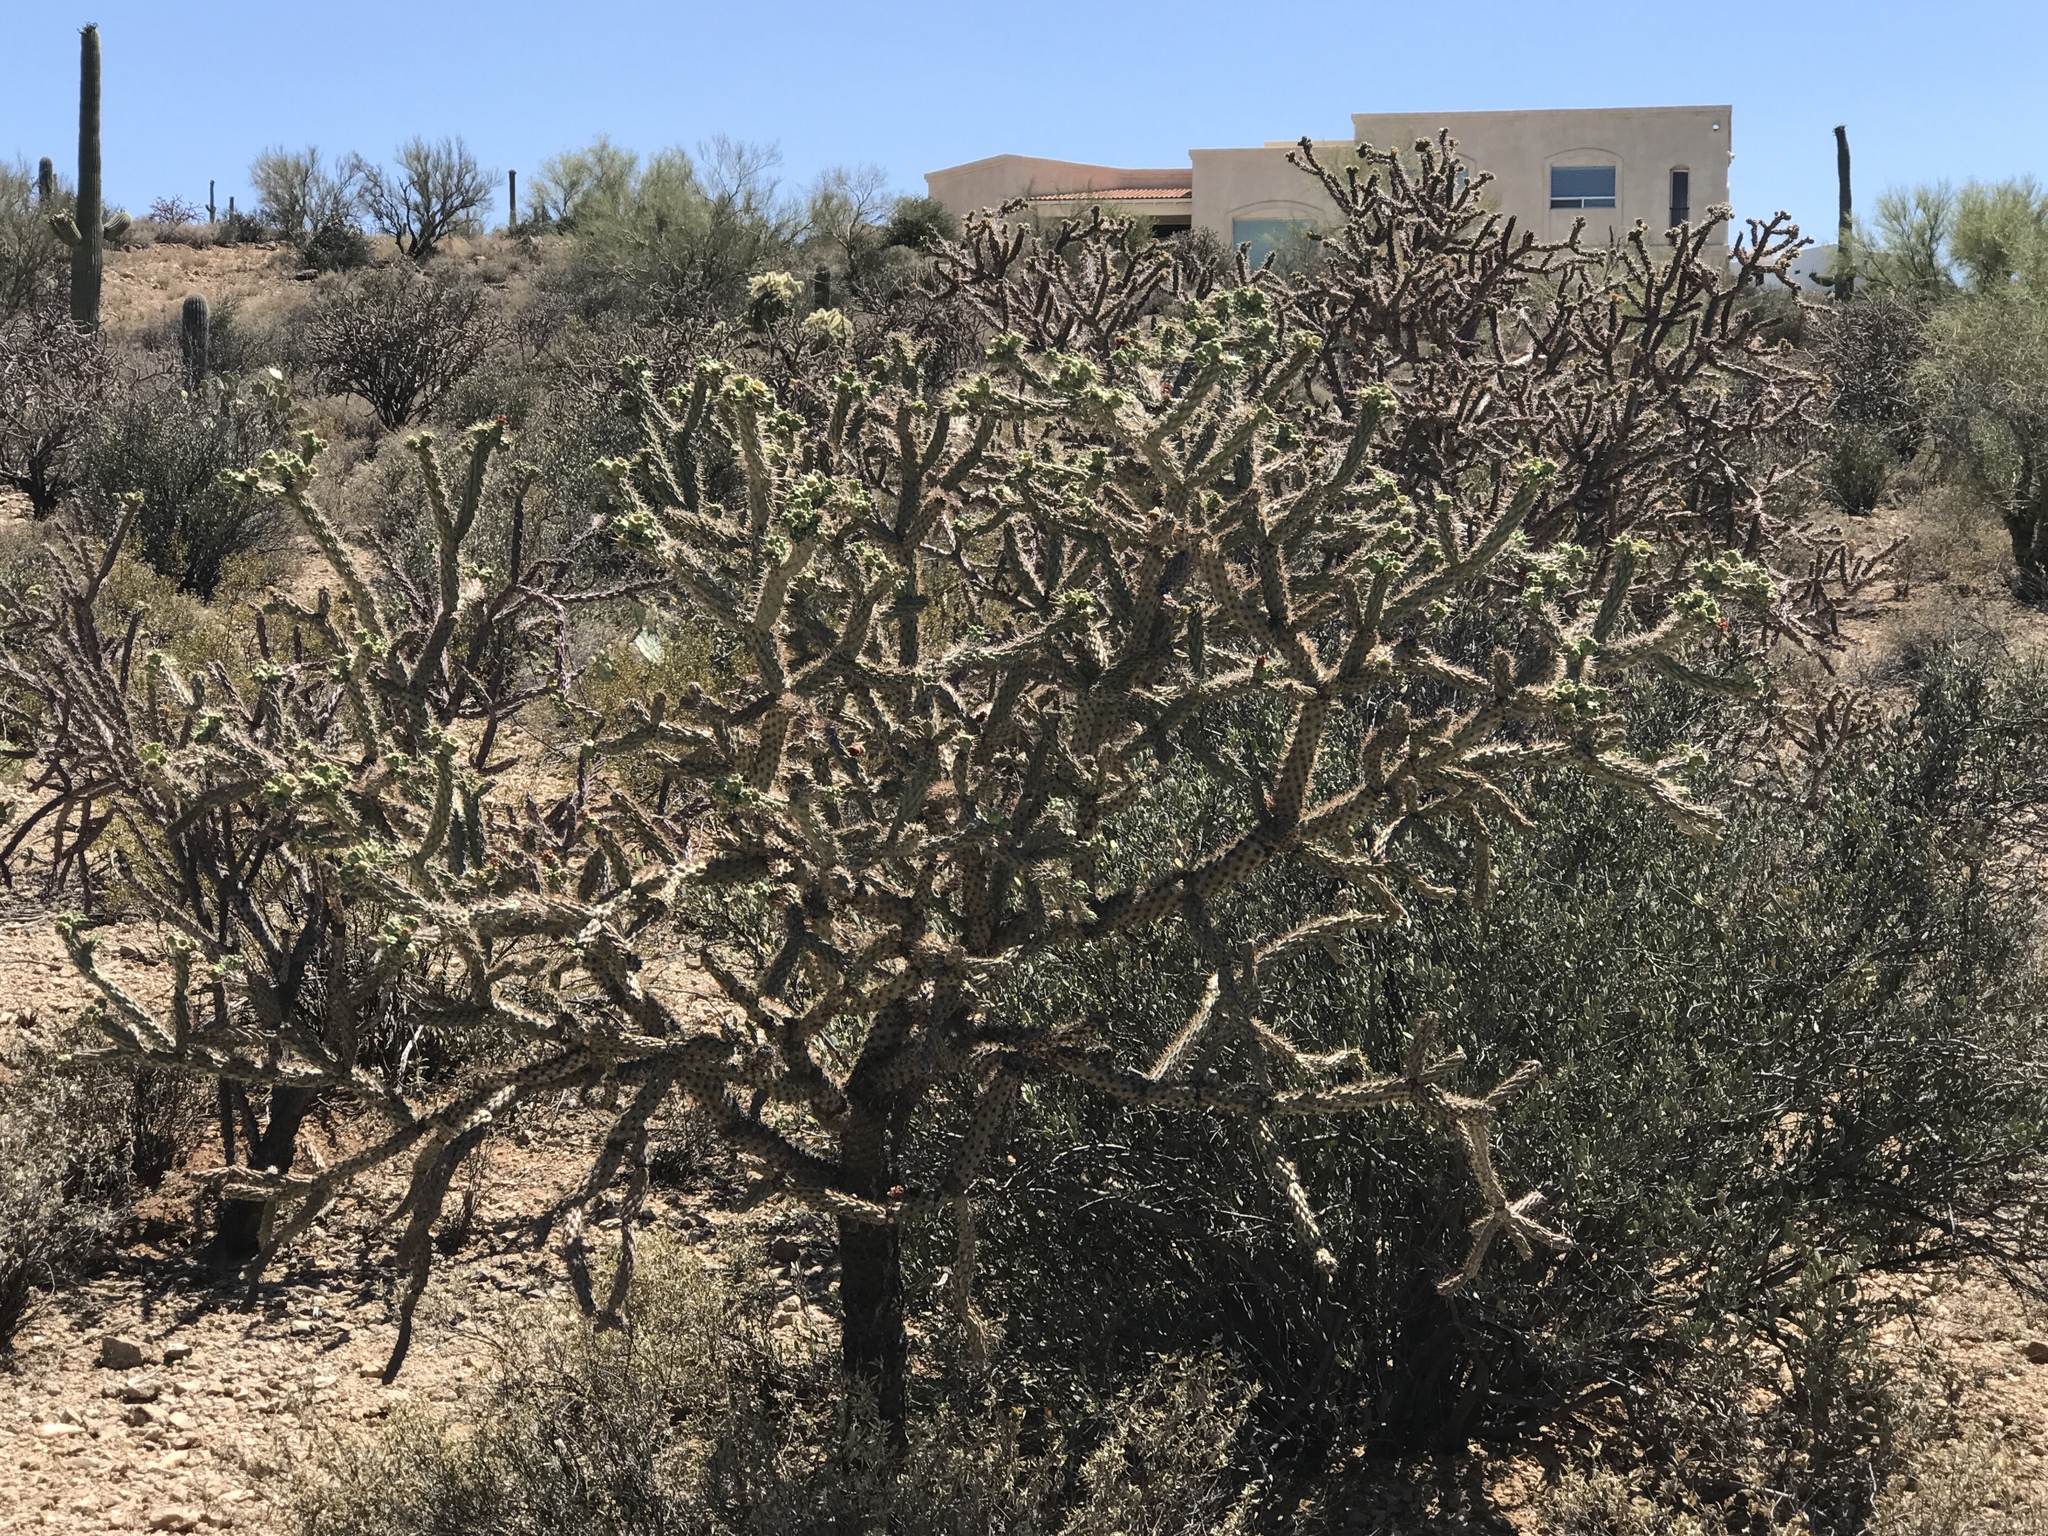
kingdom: Plantae
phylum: Tracheophyta
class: Magnoliopsida
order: Caryophyllales
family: Cactaceae
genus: Cylindropuntia
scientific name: Cylindropuntia acanthocarpa
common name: Buckhorn cholla
